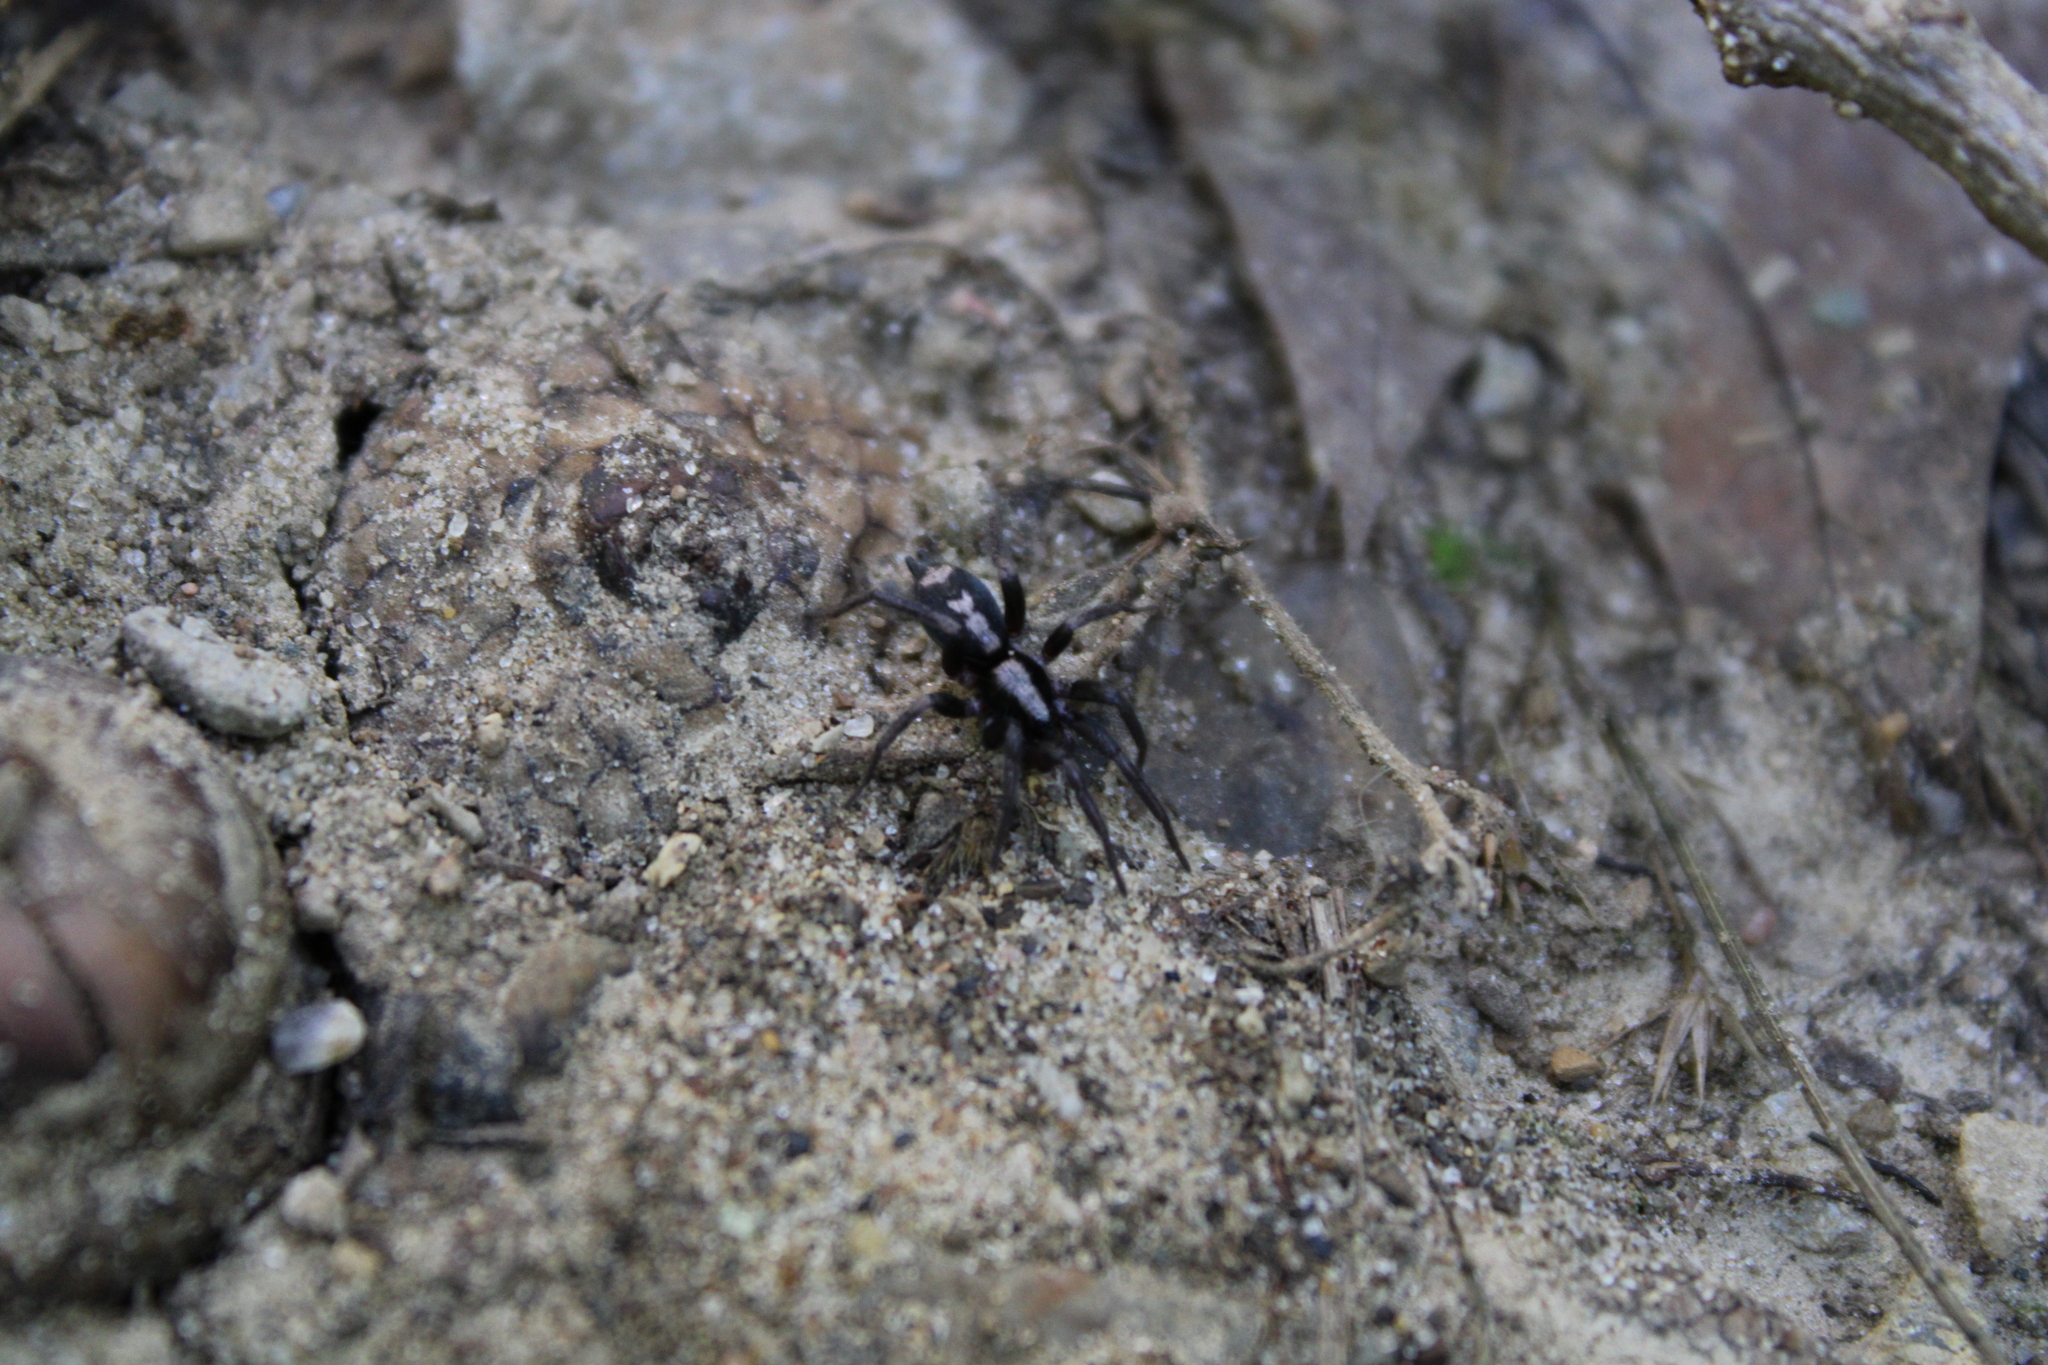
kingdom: Animalia
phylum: Arthropoda
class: Arachnida
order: Araneae
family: Gnaphosidae
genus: Herpyllus
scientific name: Herpyllus ecclesiasticus
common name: Eastern parson spider
